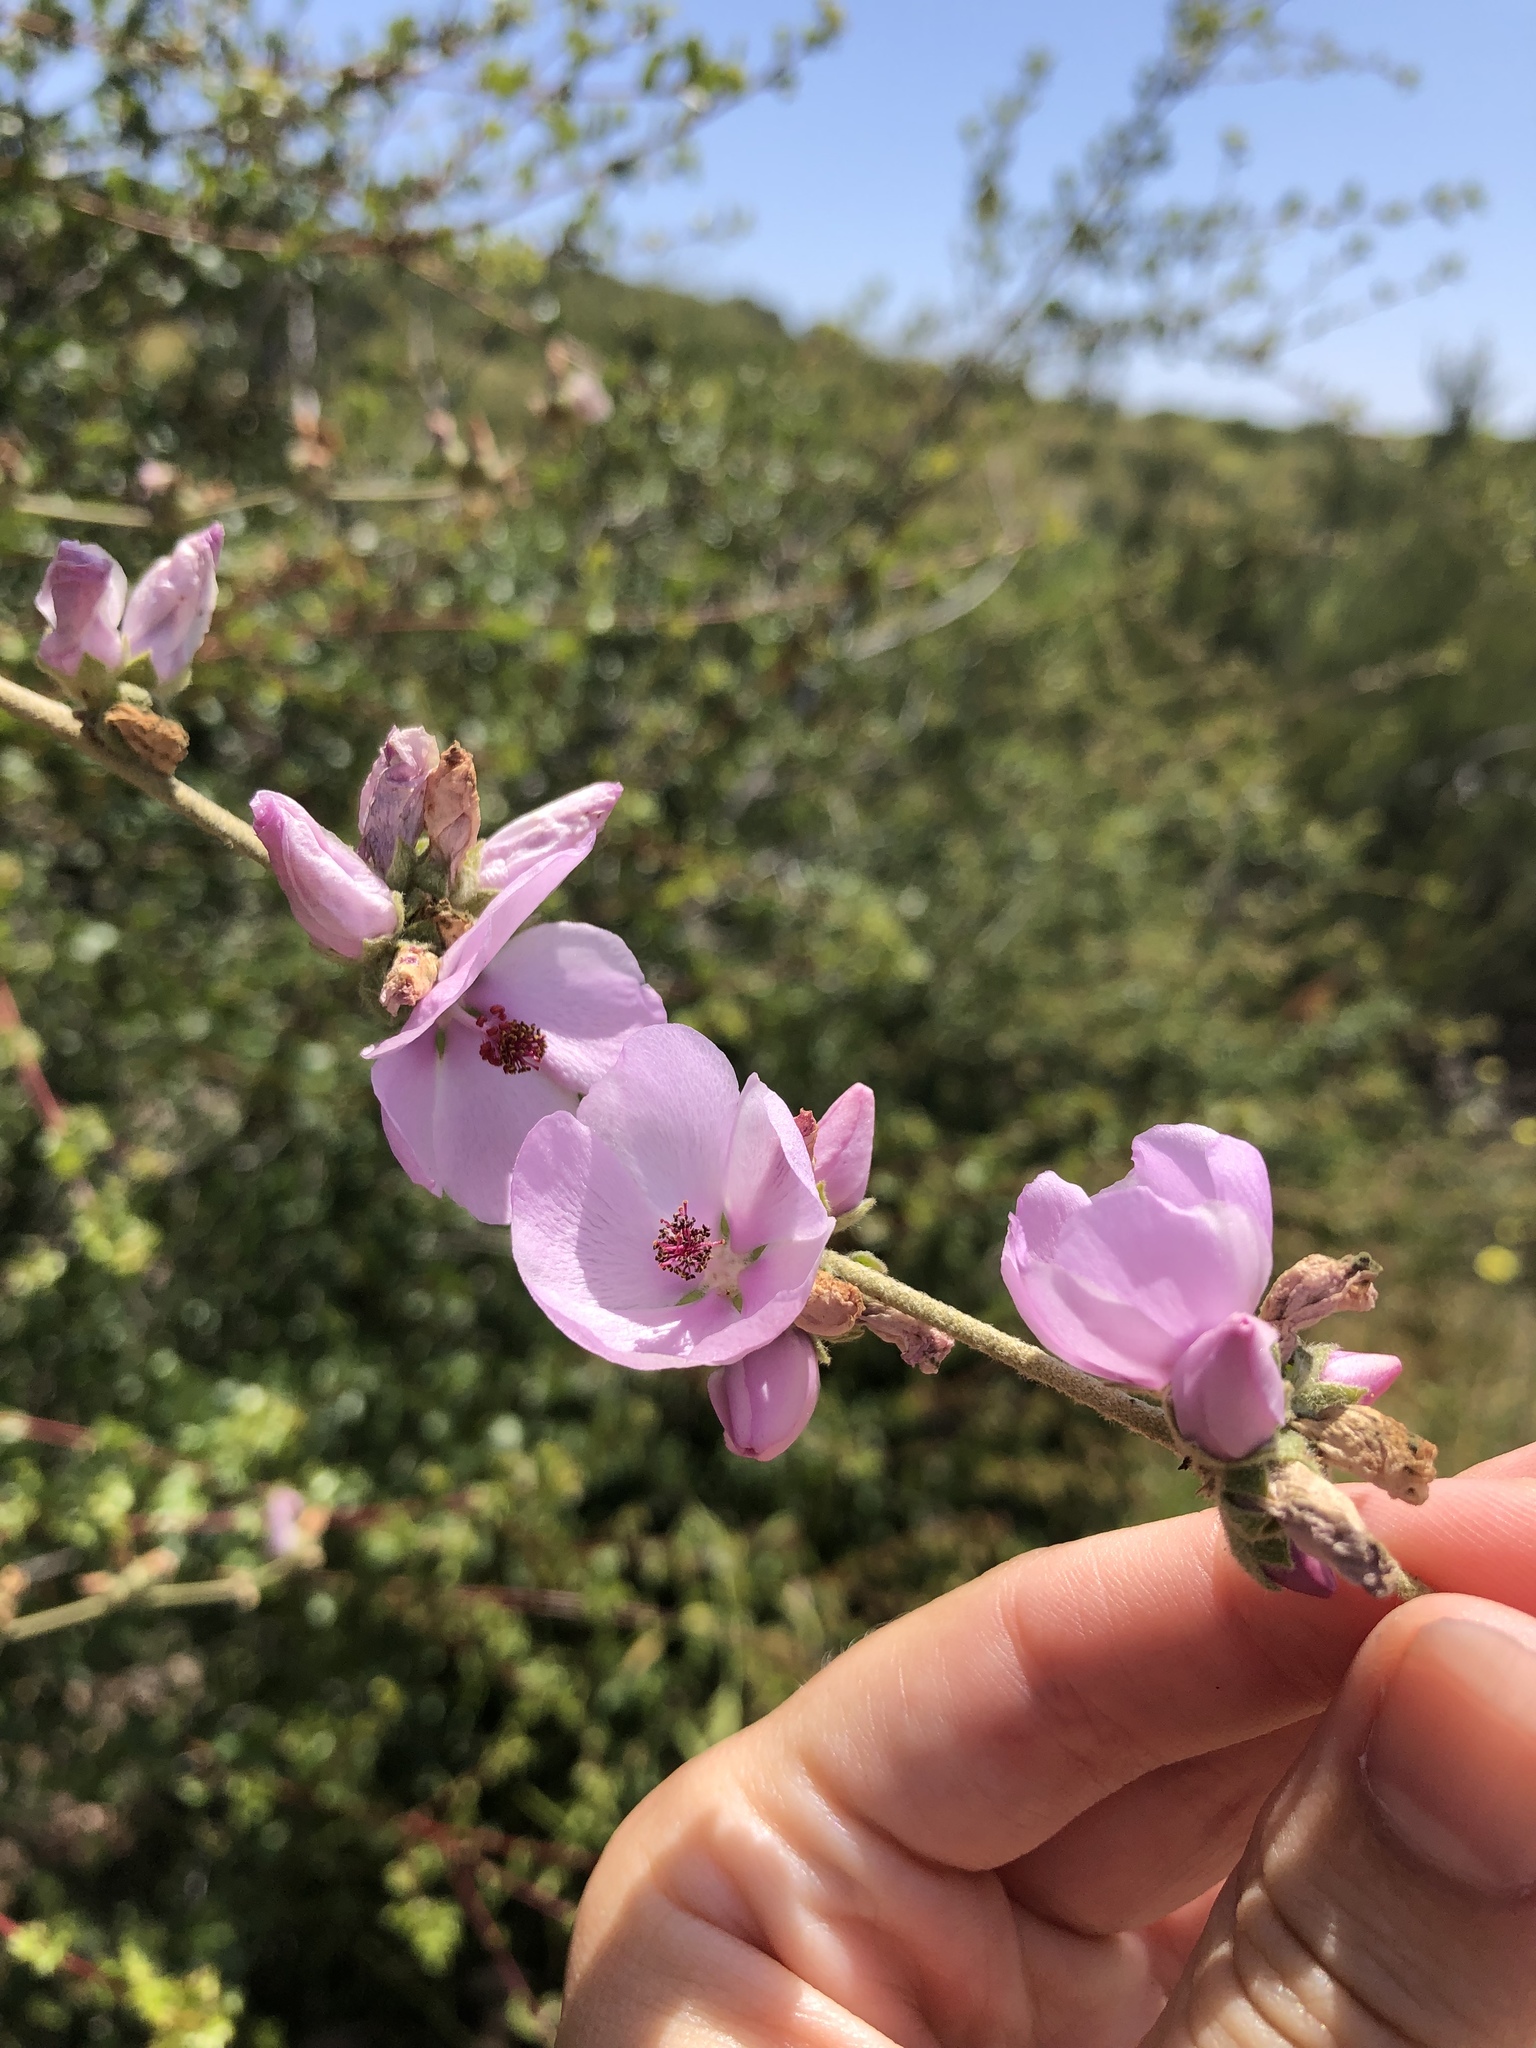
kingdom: Plantae
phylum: Tracheophyta
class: Magnoliopsida
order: Malvales
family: Malvaceae
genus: Malacothamnus
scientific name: Malacothamnus fasciculatus
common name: Sant cruz island bush-mallow
